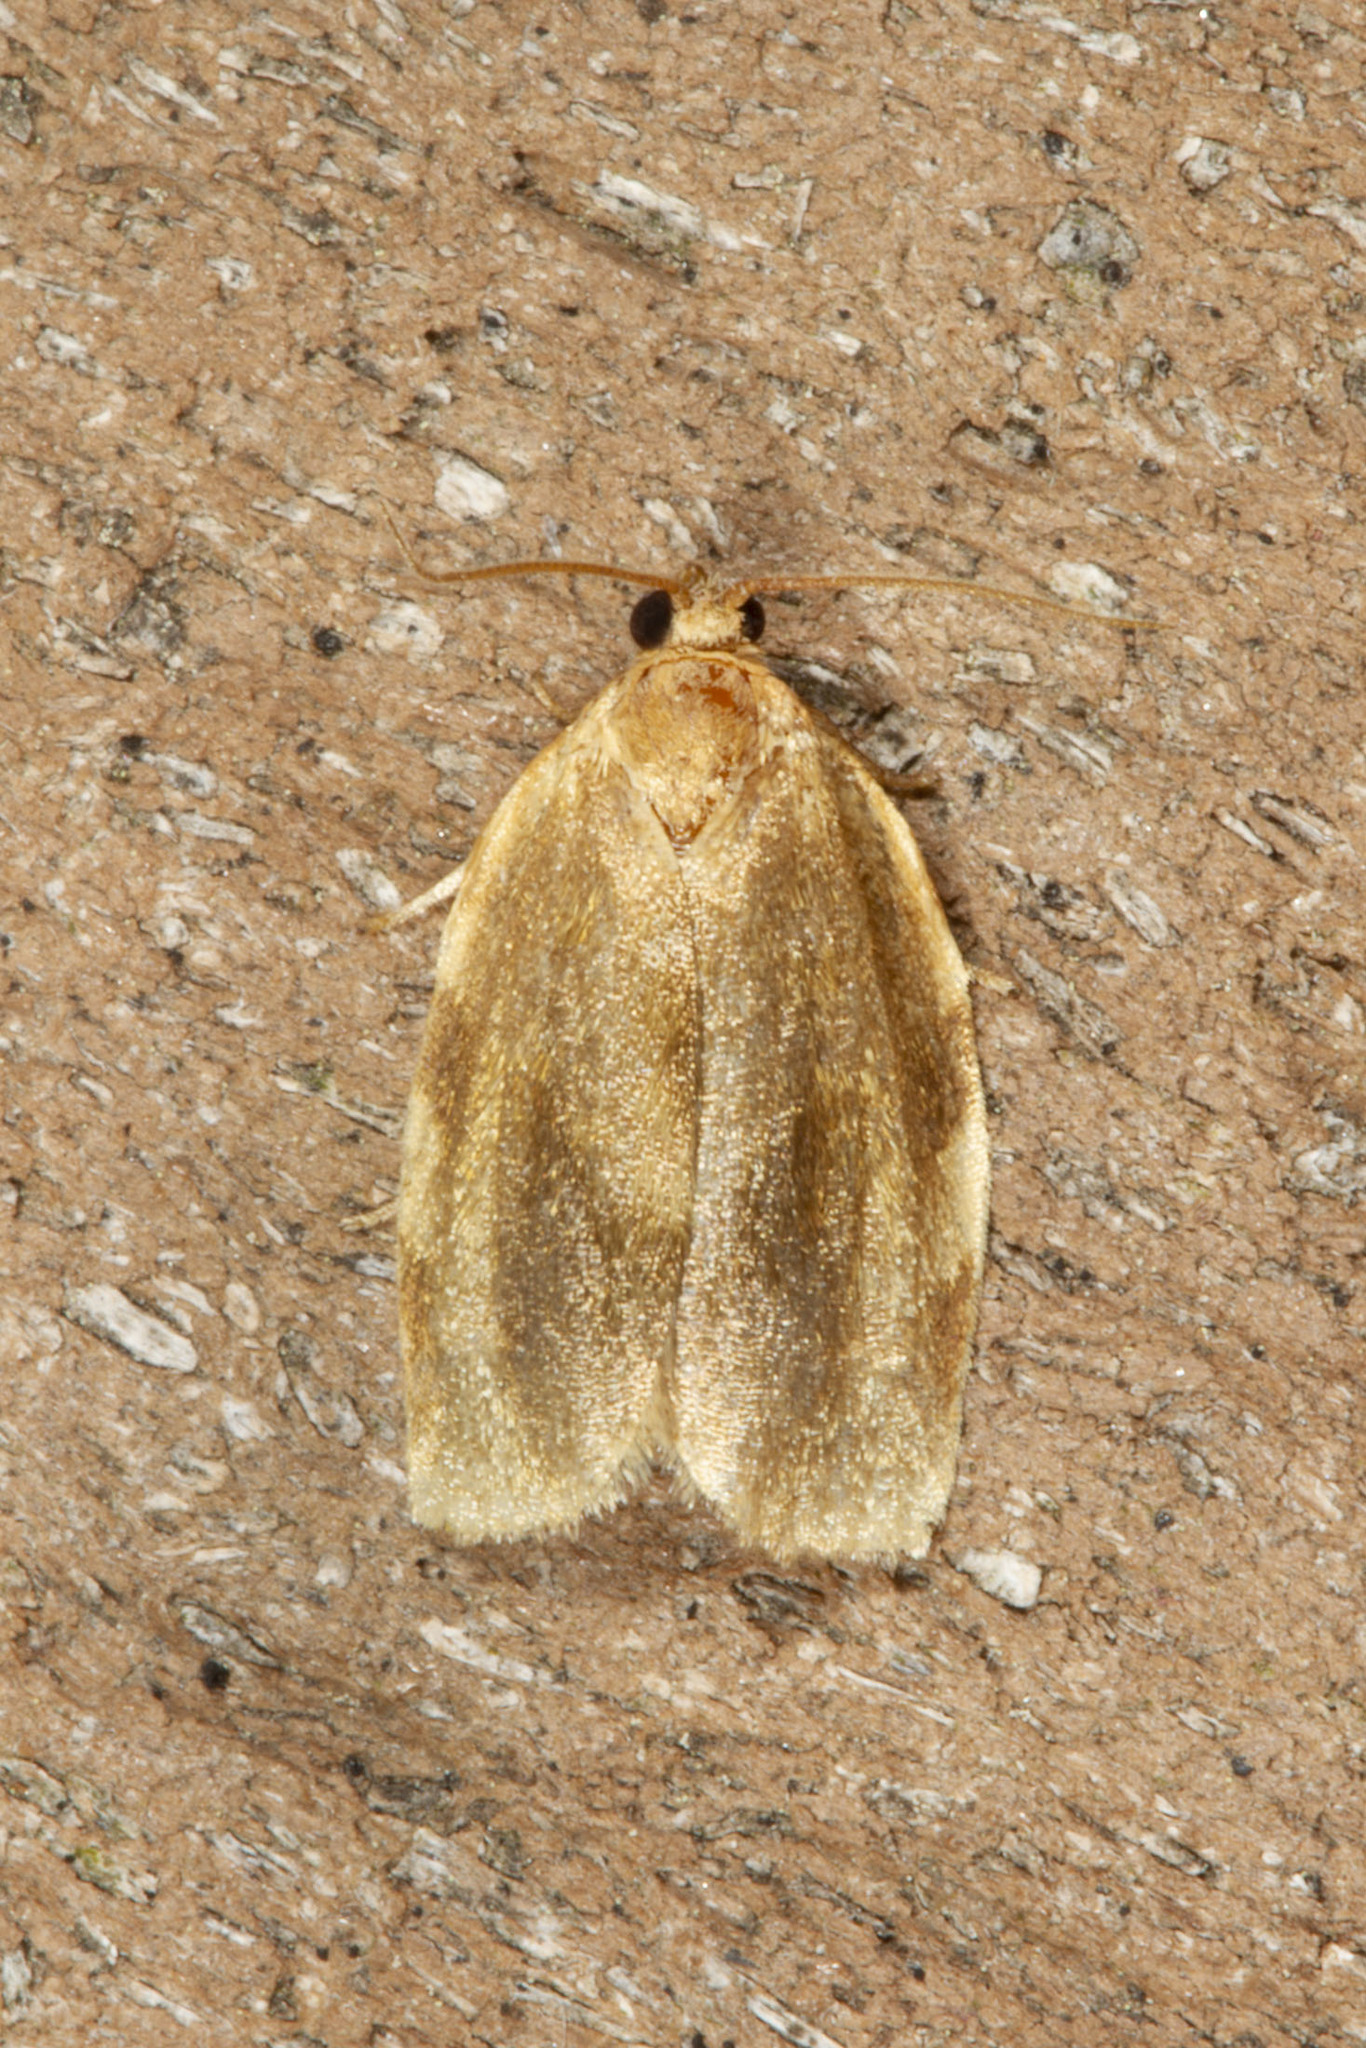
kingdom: Animalia
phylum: Arthropoda
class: Insecta
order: Lepidoptera
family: Tortricidae
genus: Choristoneura
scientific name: Choristoneura fractivittana
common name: Broken-banded leafroller moth
